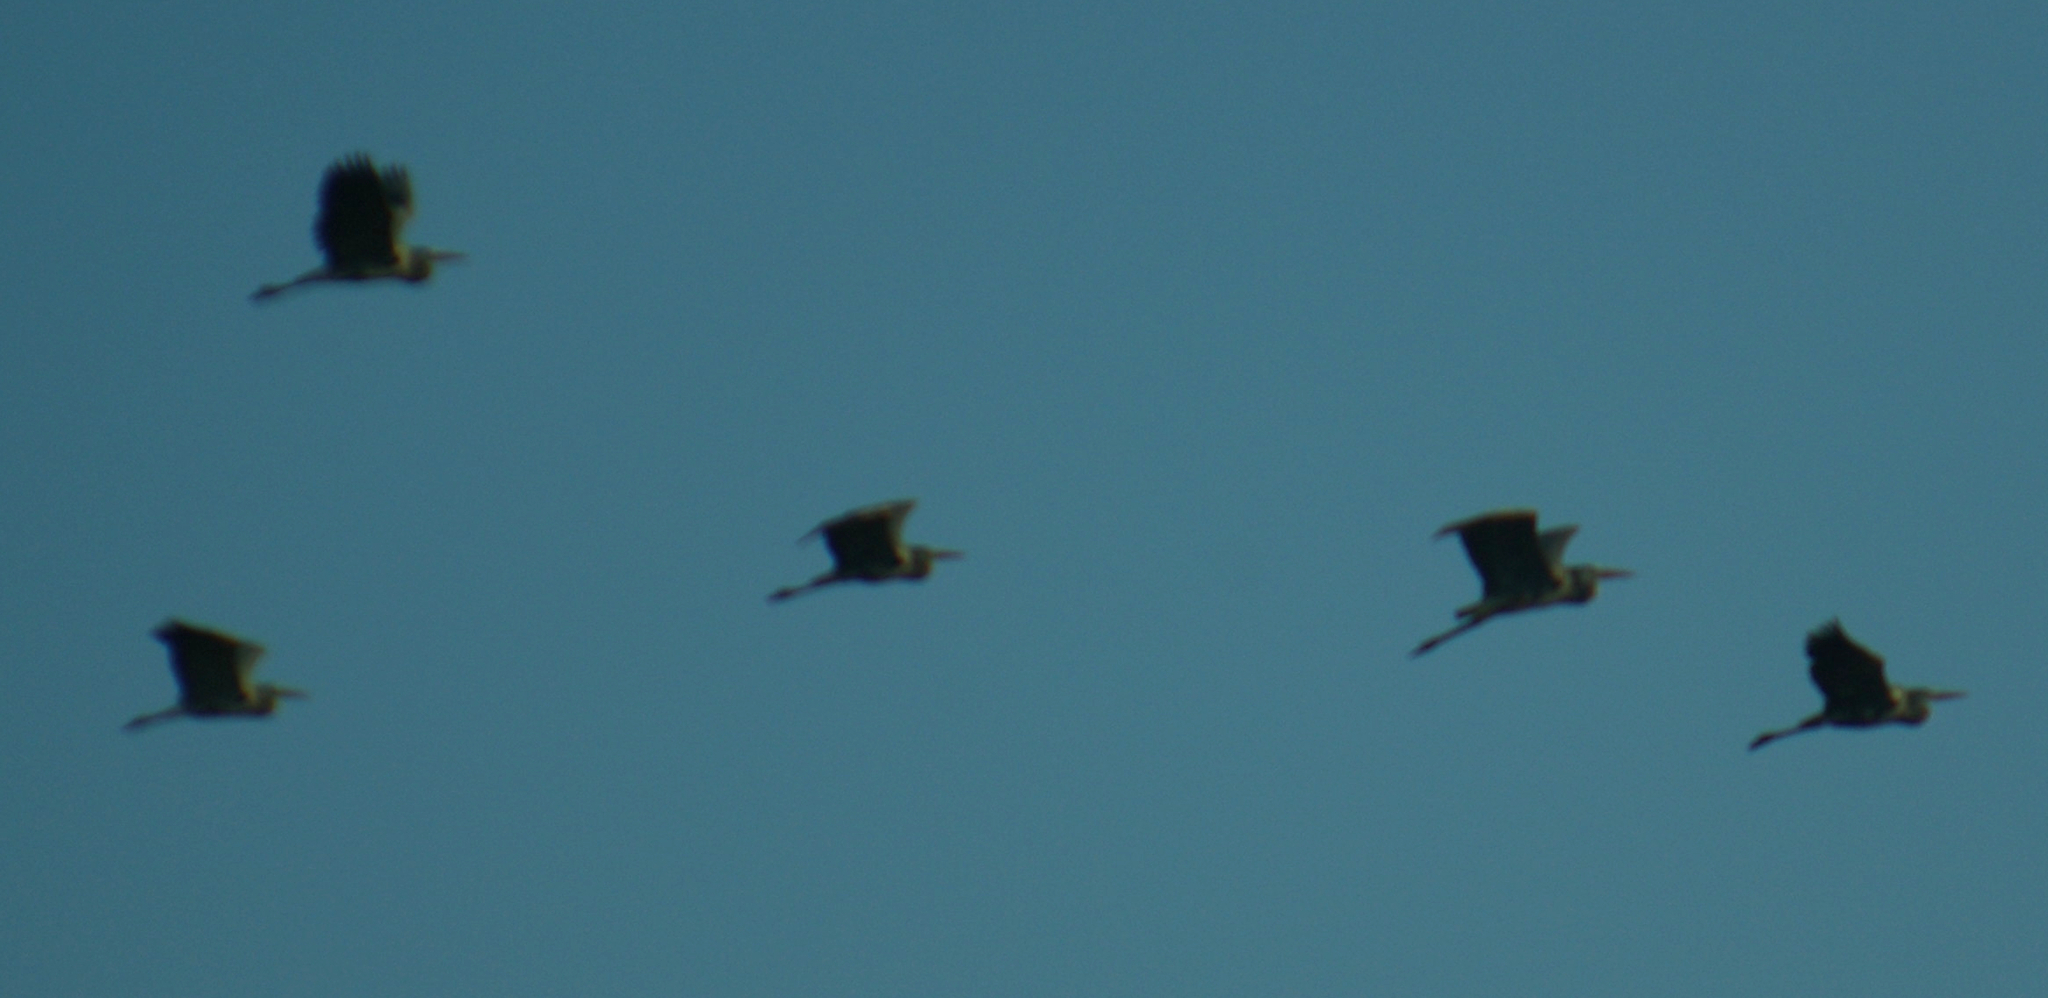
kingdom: Animalia
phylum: Chordata
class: Aves
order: Pelecaniformes
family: Ardeidae
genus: Ardea
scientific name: Ardea herodias
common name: Great blue heron
